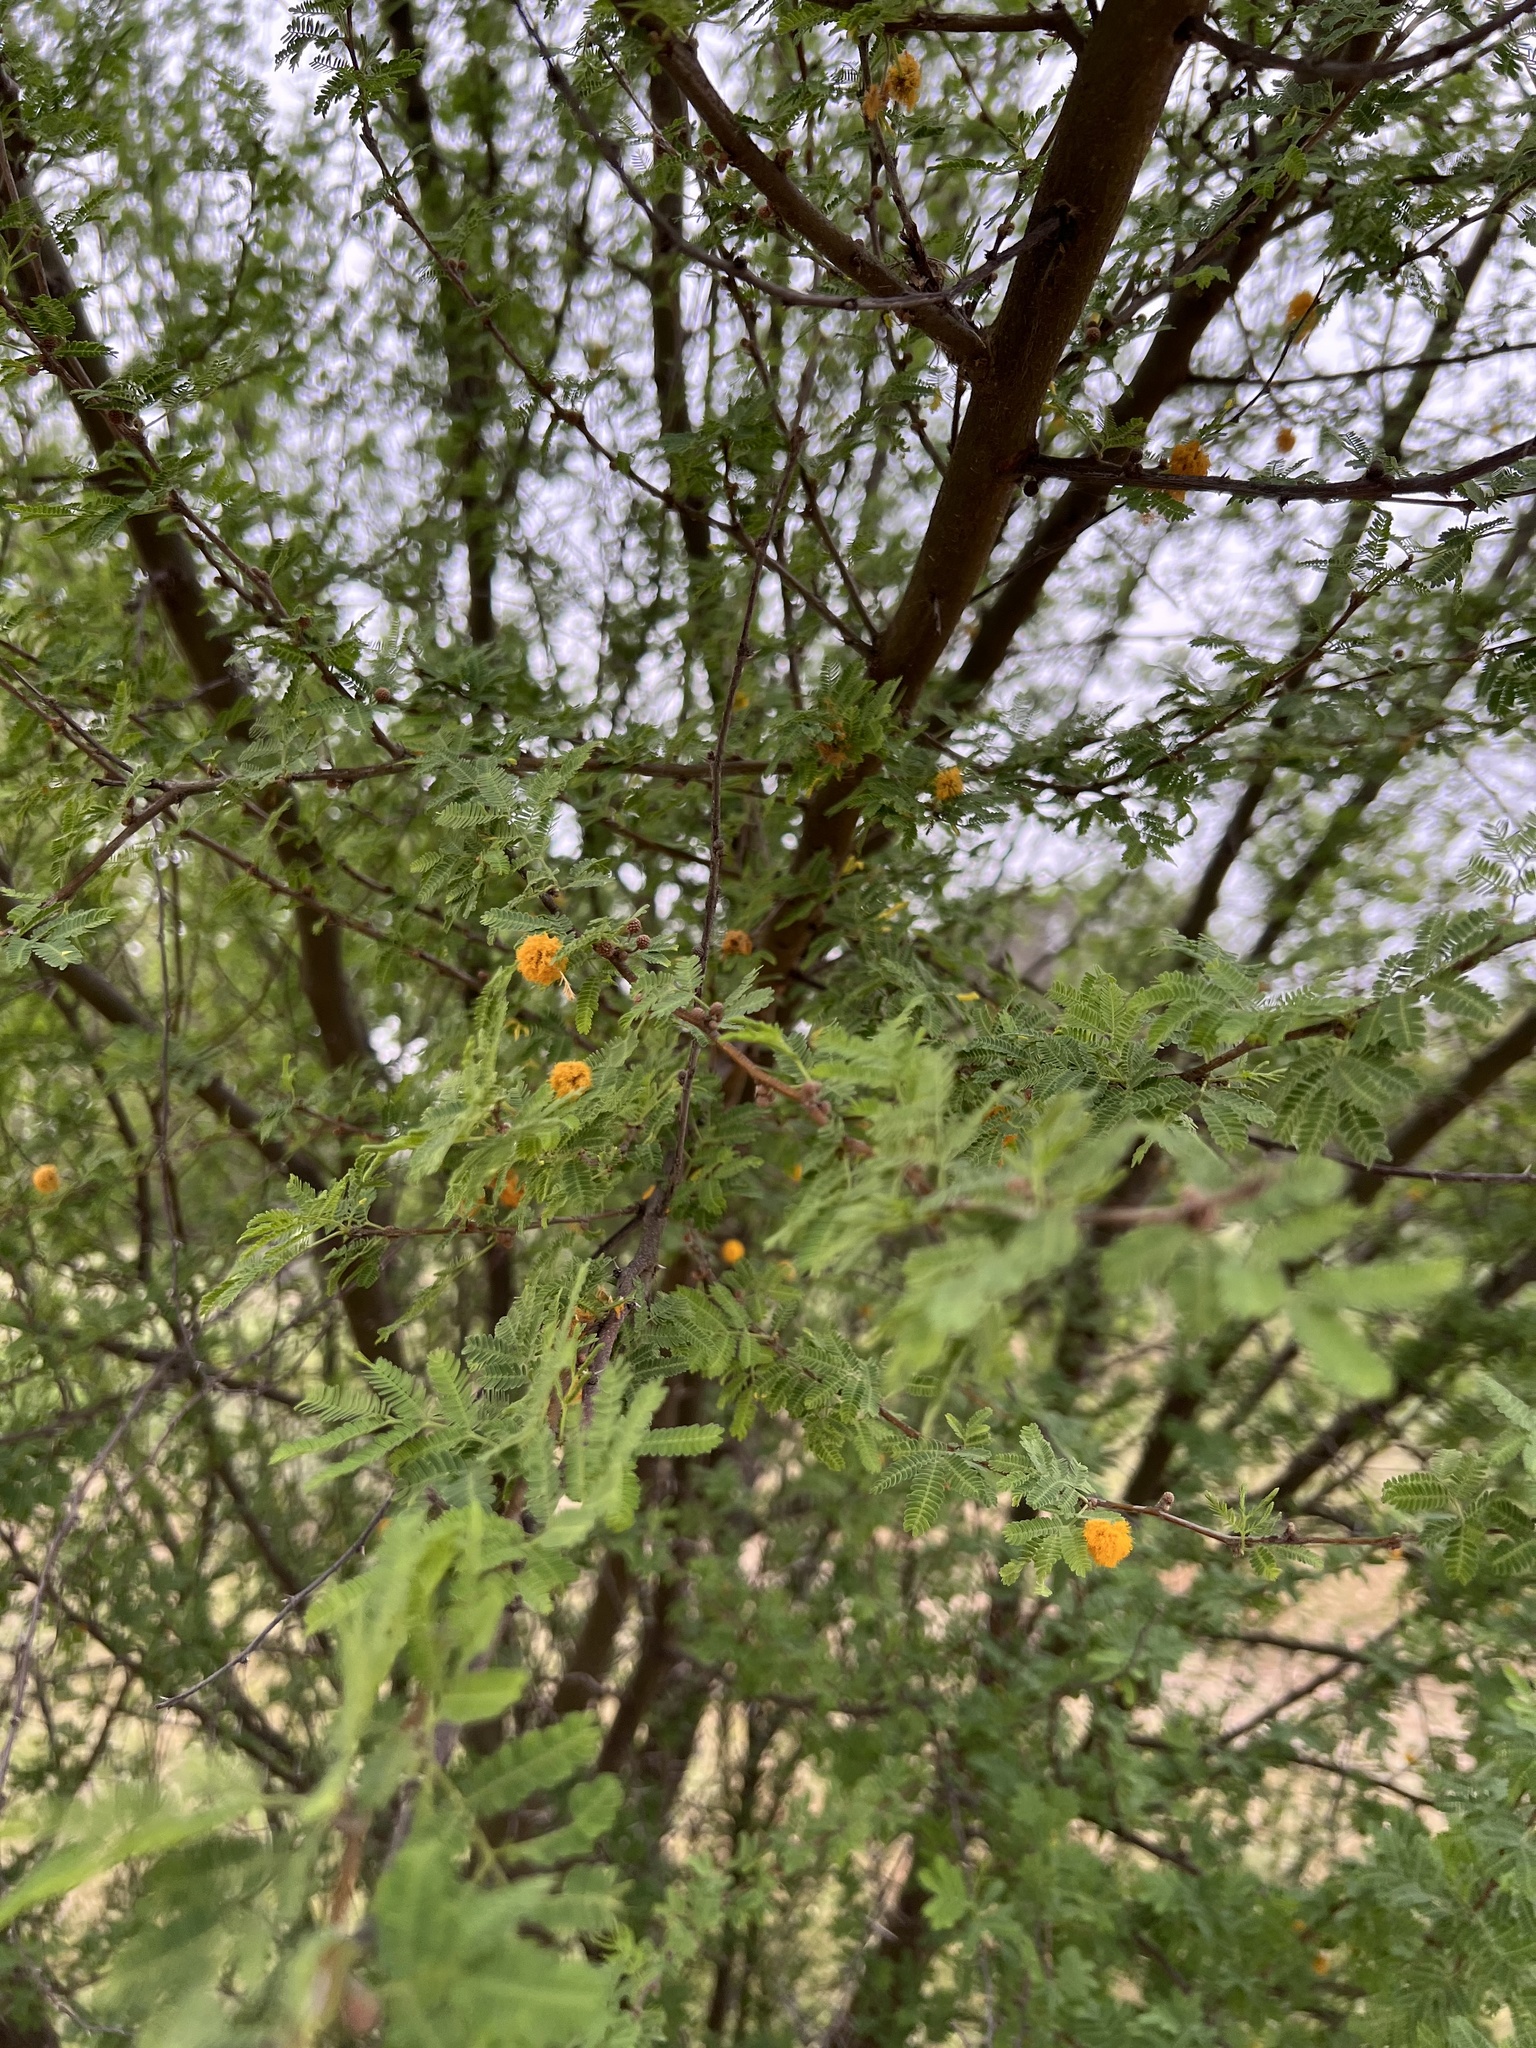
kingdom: Plantae
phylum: Tracheophyta
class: Magnoliopsida
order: Fabales
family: Fabaceae
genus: Vachellia
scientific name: Vachellia farnesiana
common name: Sweet acacia
